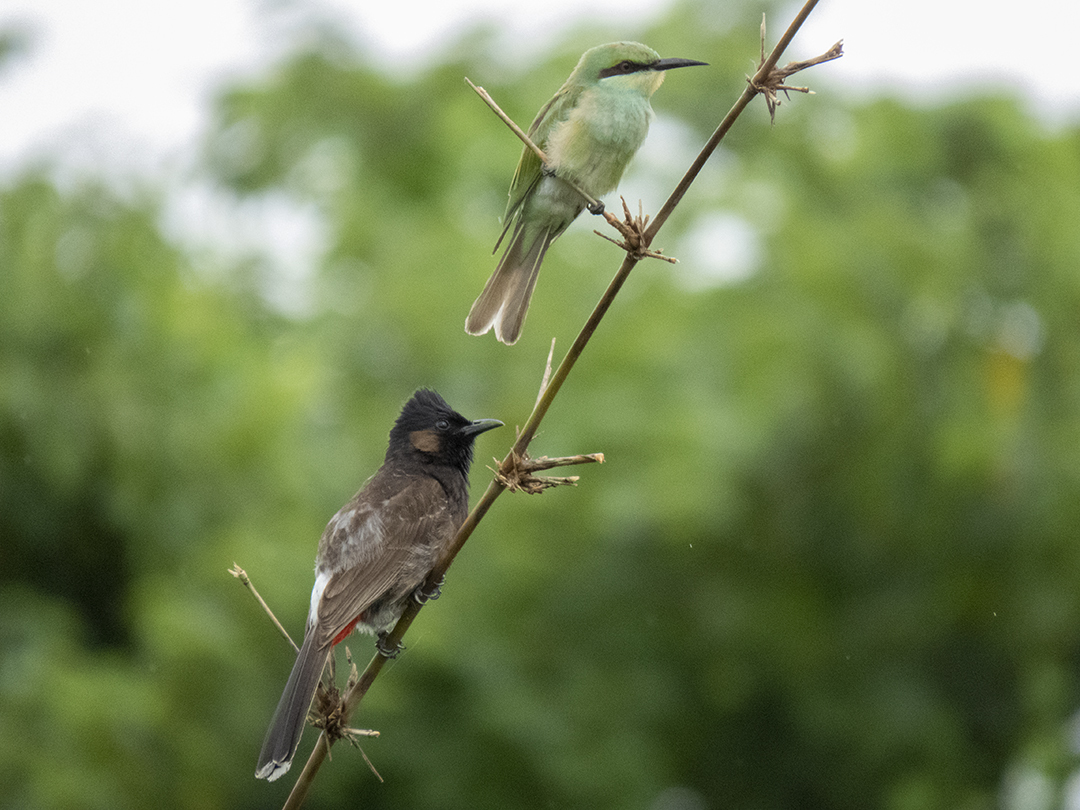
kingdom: Animalia
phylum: Chordata
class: Aves
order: Passeriformes
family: Pycnonotidae
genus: Pycnonotus
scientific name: Pycnonotus cafer
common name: Red-vented bulbul
